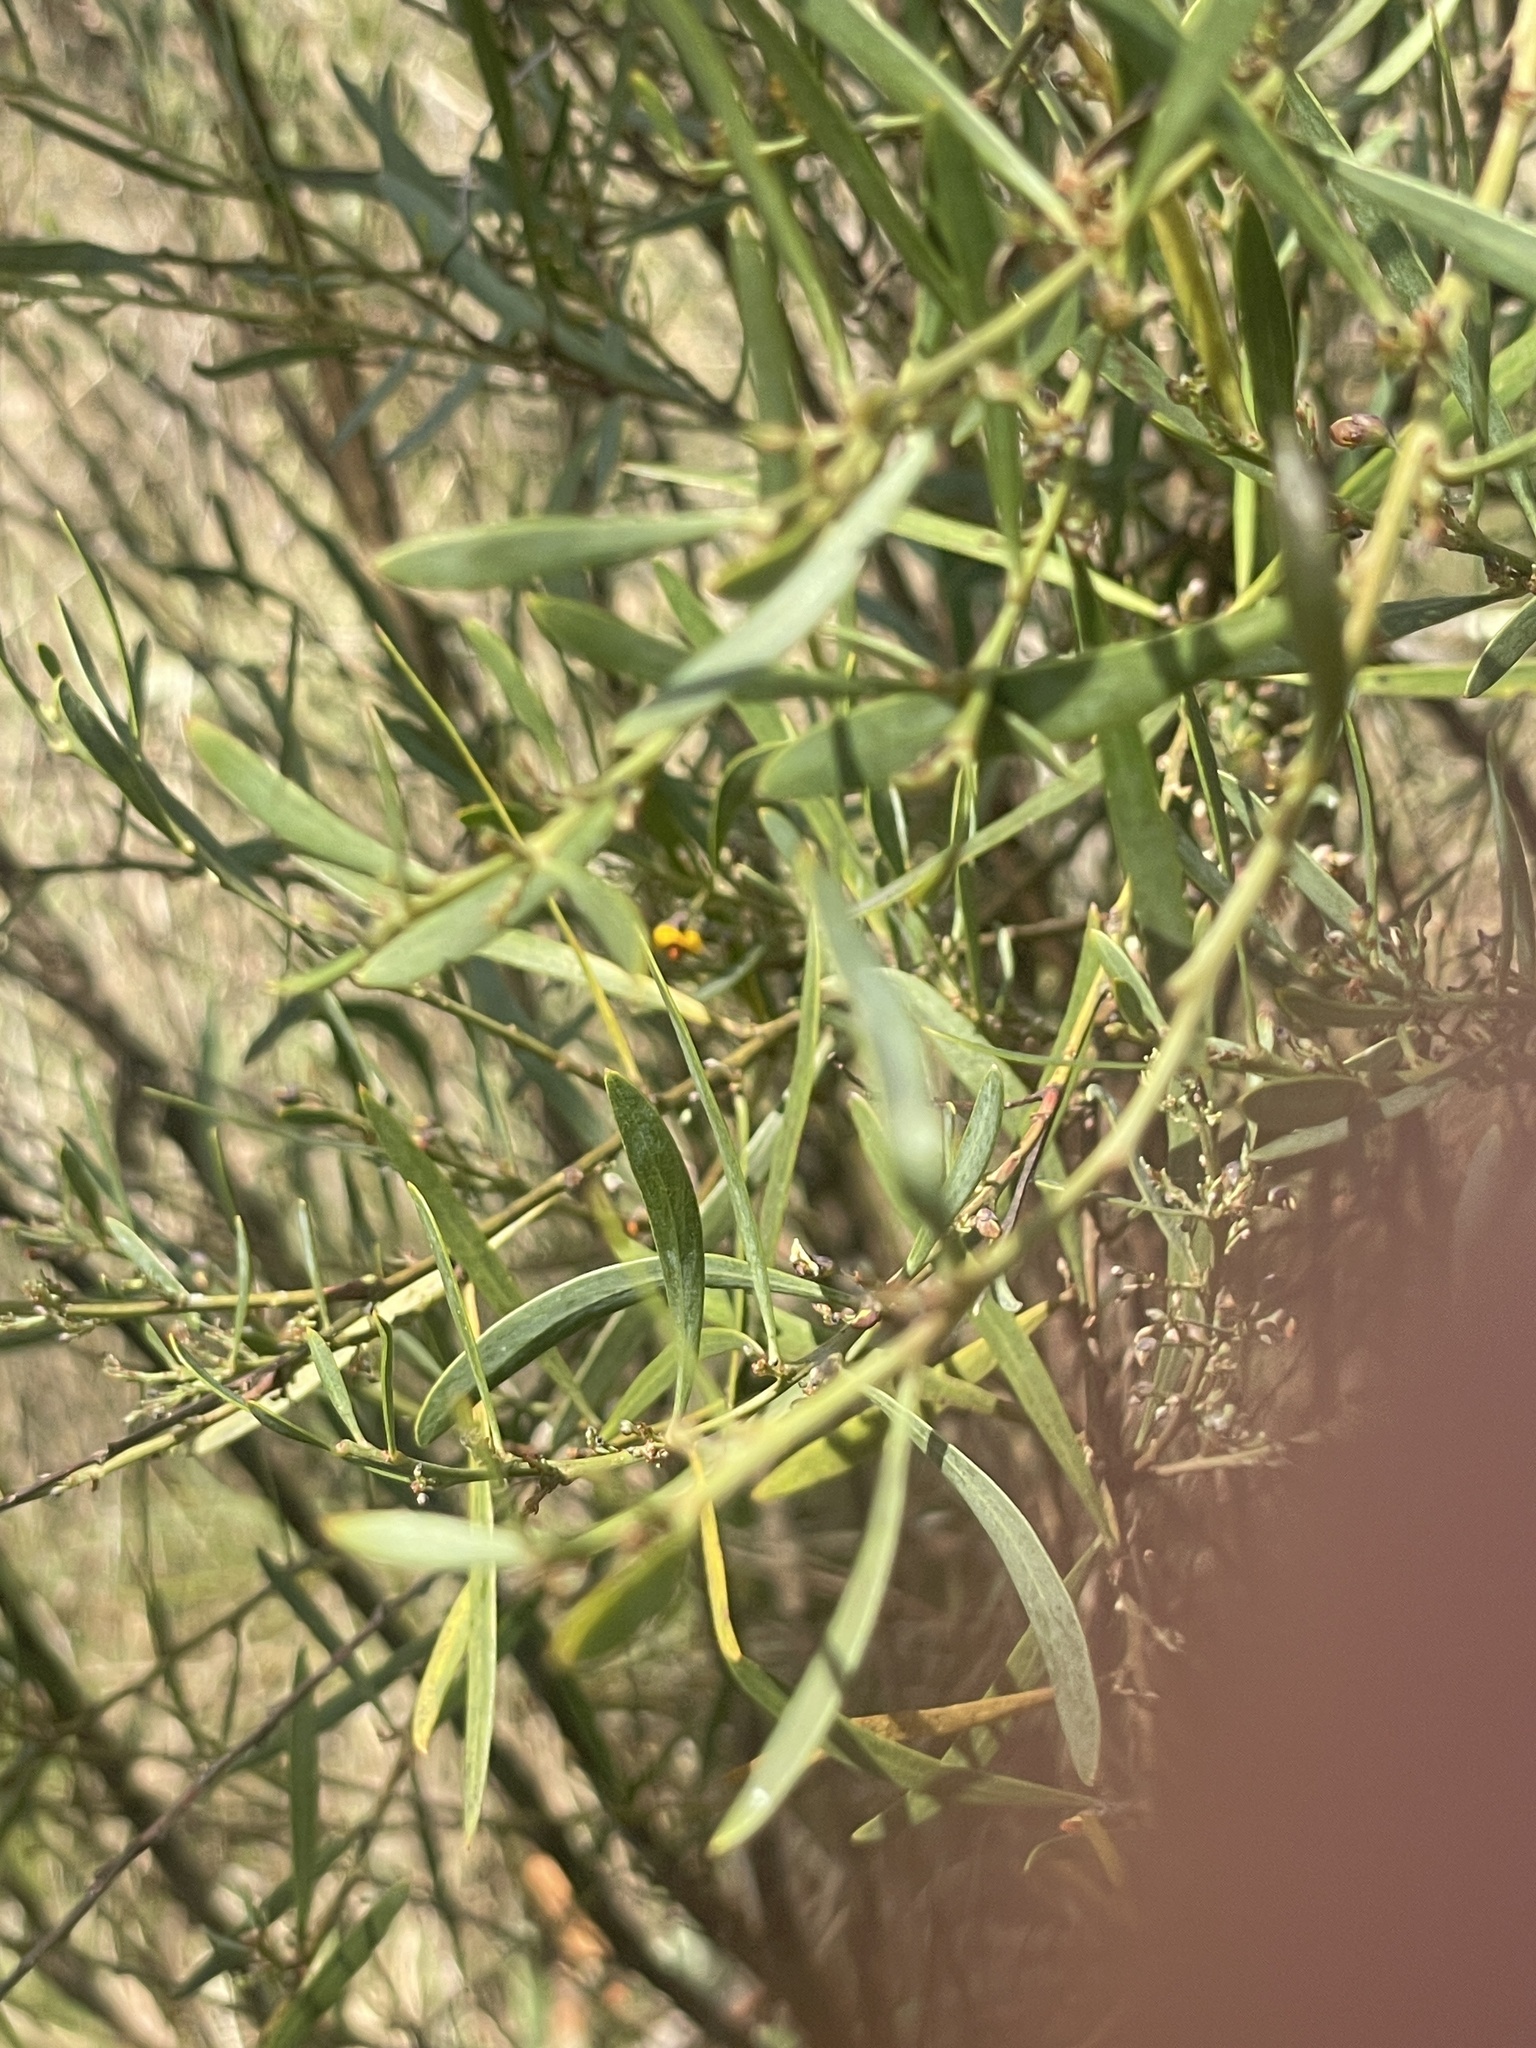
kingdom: Plantae
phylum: Tracheophyta
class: Magnoliopsida
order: Fabales
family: Fabaceae
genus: Daviesia
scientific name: Daviesia mimosoides
